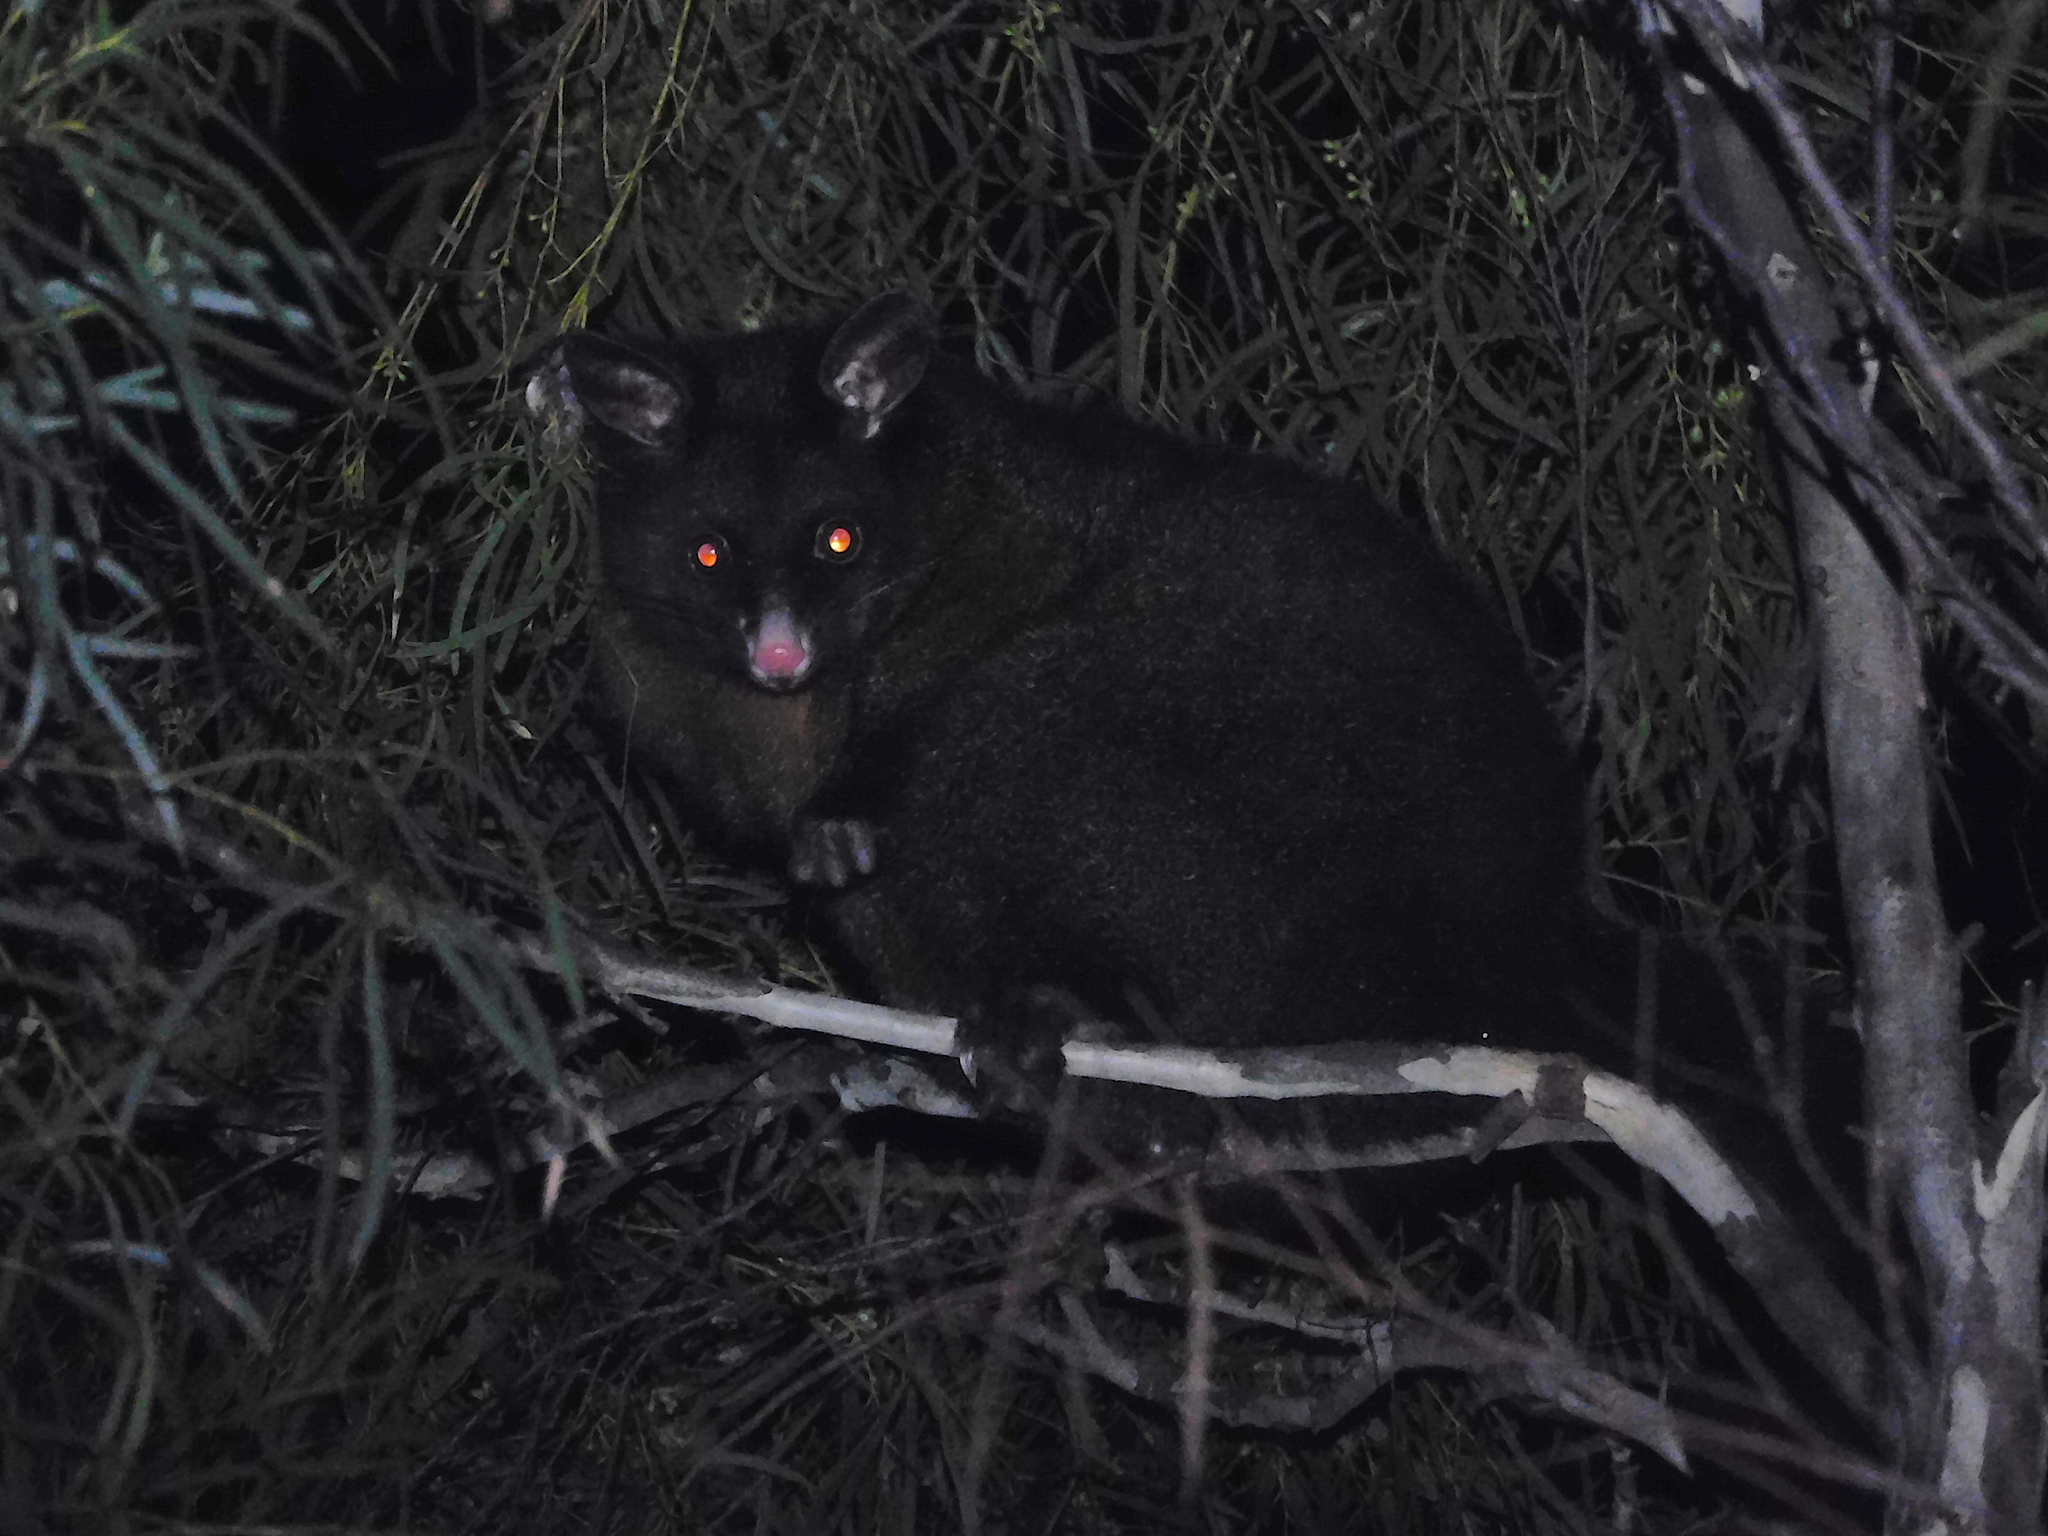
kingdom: Animalia
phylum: Chordata
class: Mammalia
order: Diprotodontia
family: Phalangeridae
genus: Trichosurus
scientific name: Trichosurus vulpecula
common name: Common brushtail
